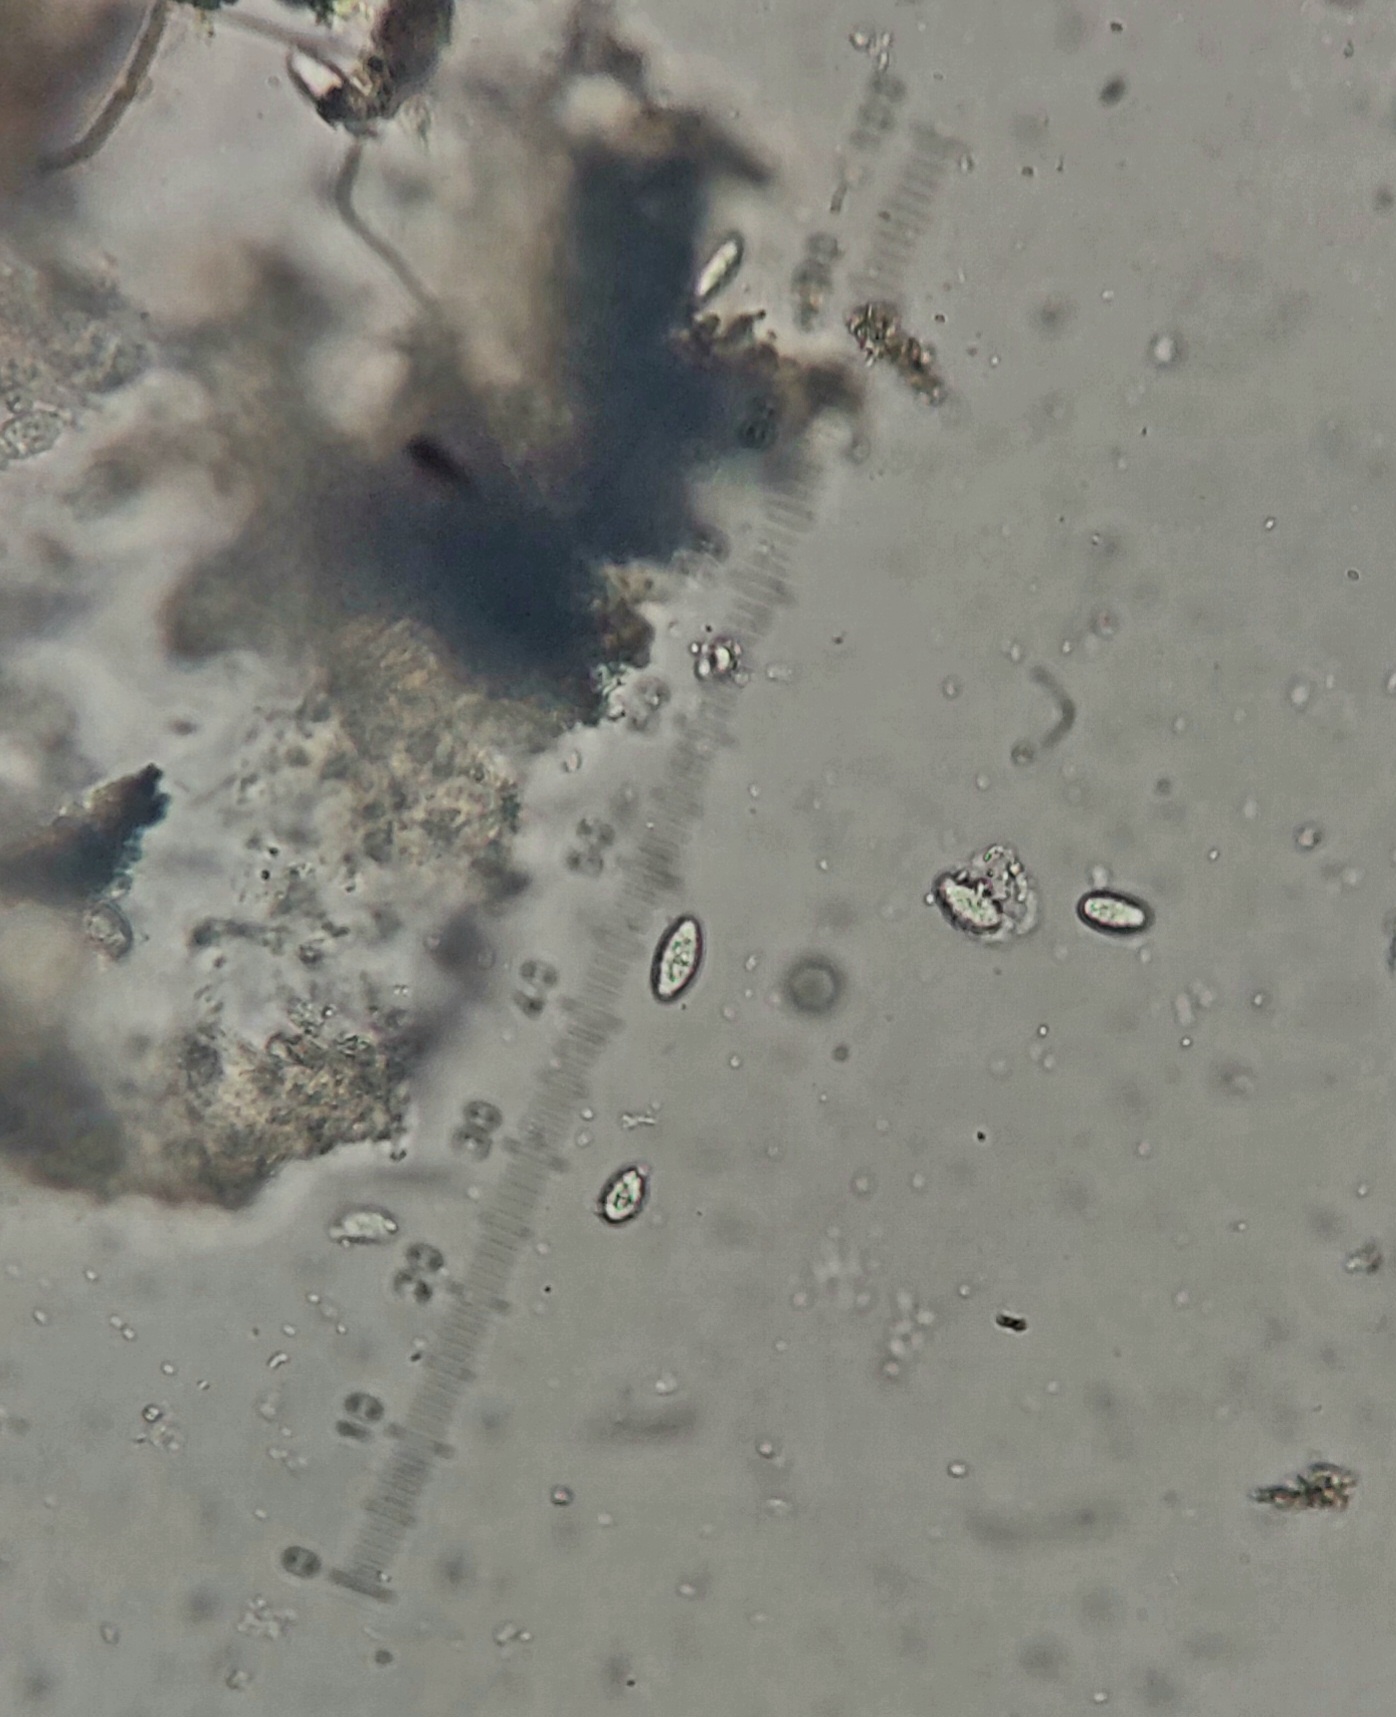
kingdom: Fungi
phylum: Ascomycota
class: Eurotiomycetes
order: Verrucariales
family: Verrucariaceae
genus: Hydropunctaria
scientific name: Hydropunctaria maura
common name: Tar lichen
